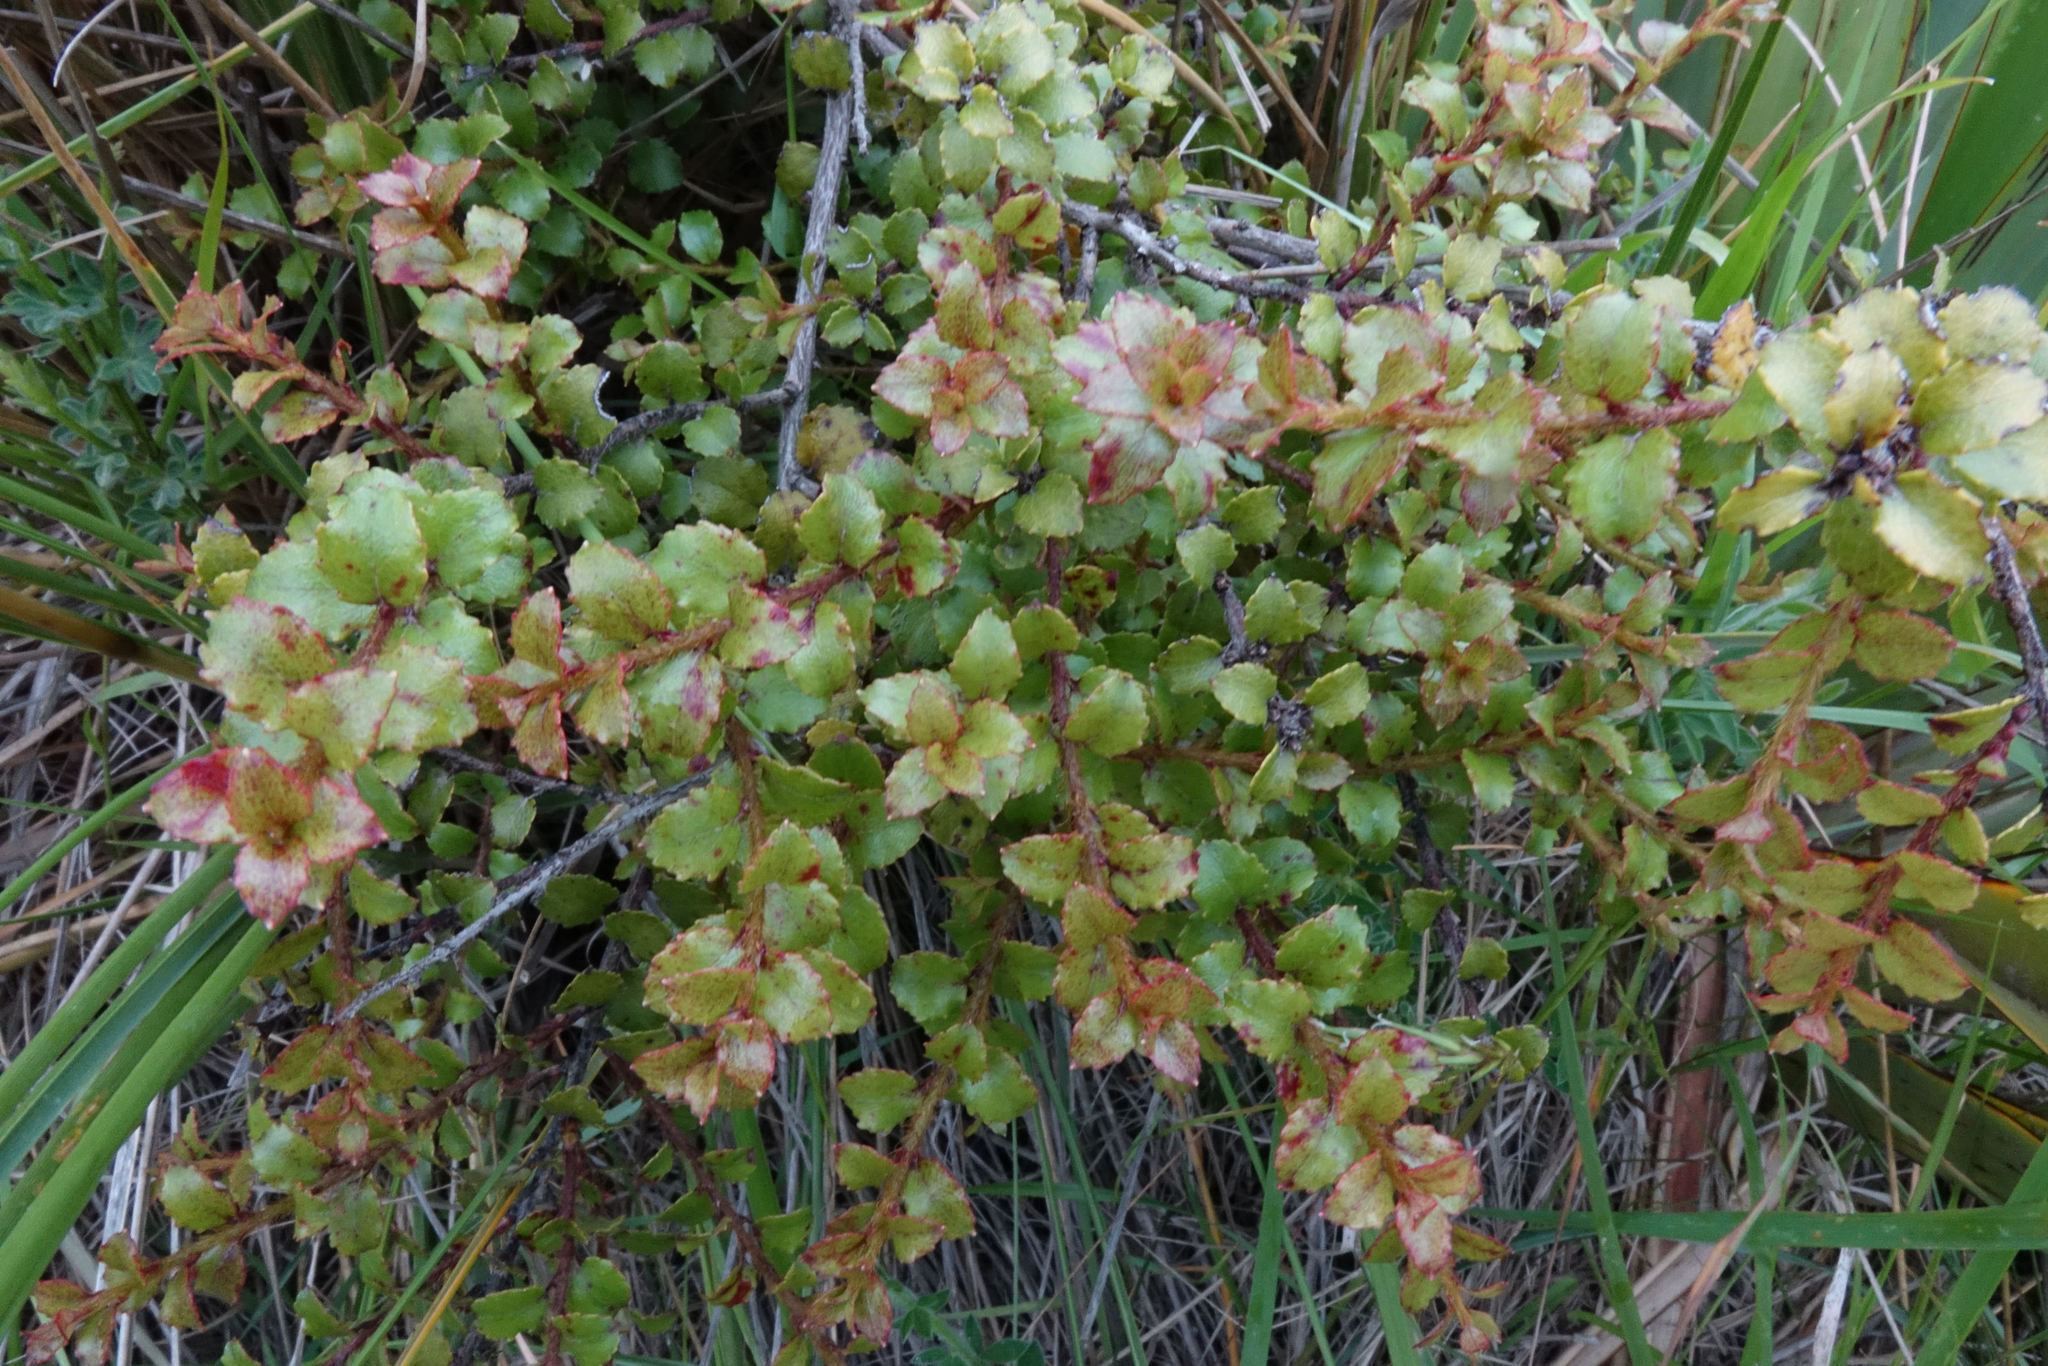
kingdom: Plantae
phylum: Tracheophyta
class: Magnoliopsida
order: Ericales
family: Ericaceae
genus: Gaultheria
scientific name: Gaultheria antipoda
